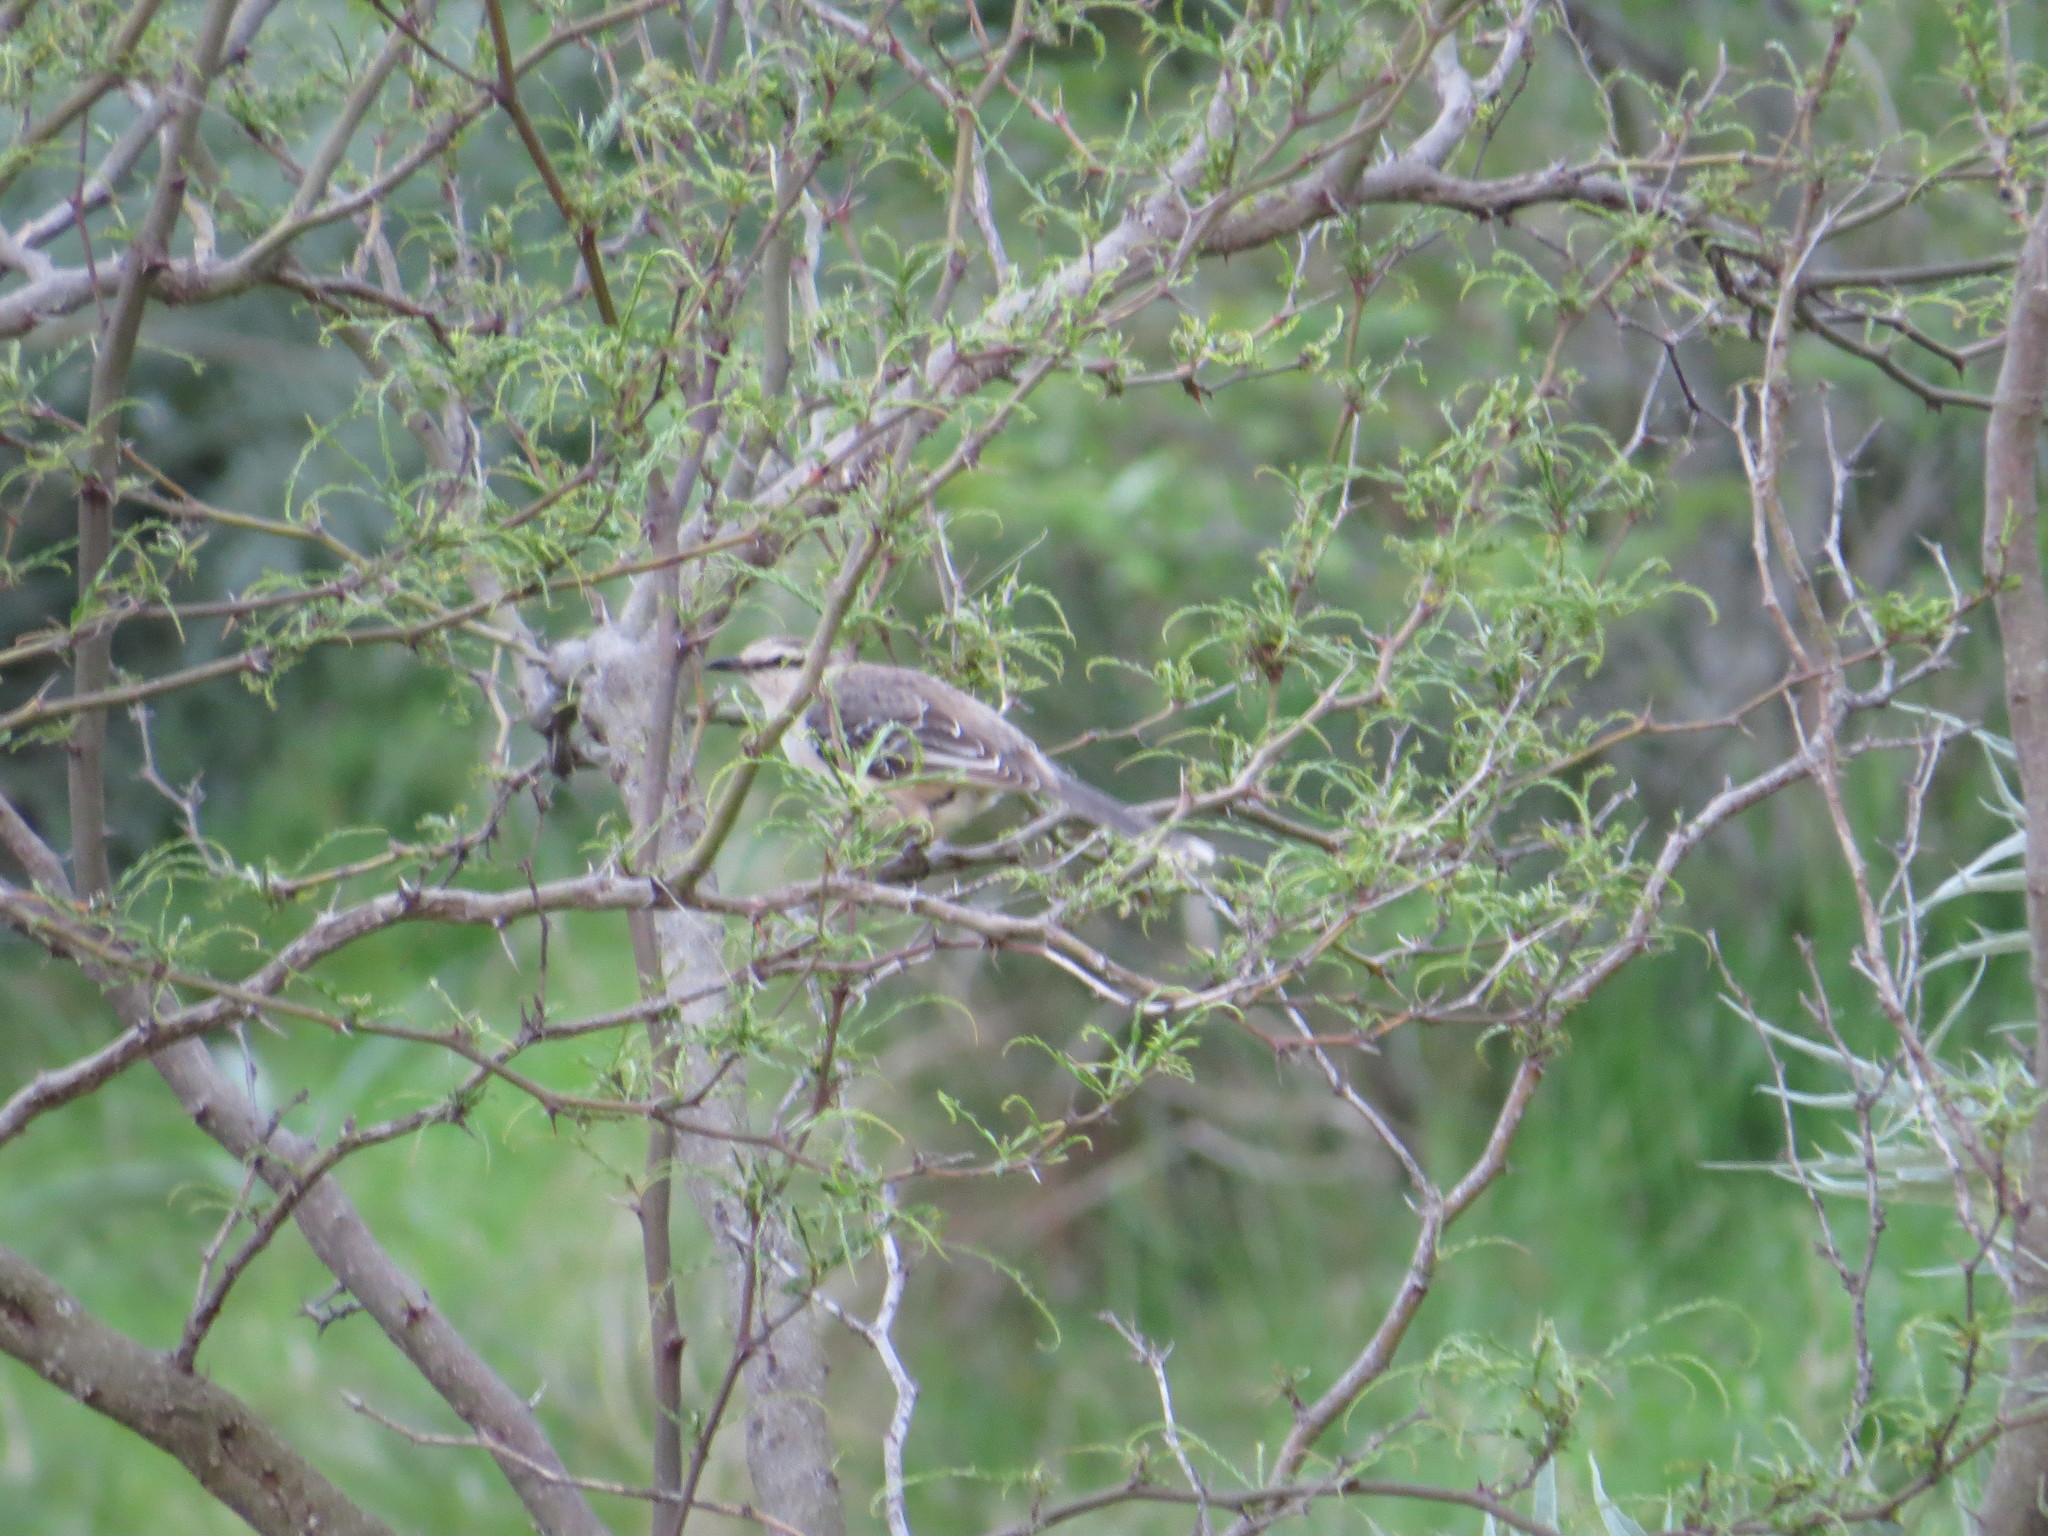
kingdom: Animalia
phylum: Chordata
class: Aves
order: Passeriformes
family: Mimidae
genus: Mimus
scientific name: Mimus saturninus
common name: Chalk-browed mockingbird
